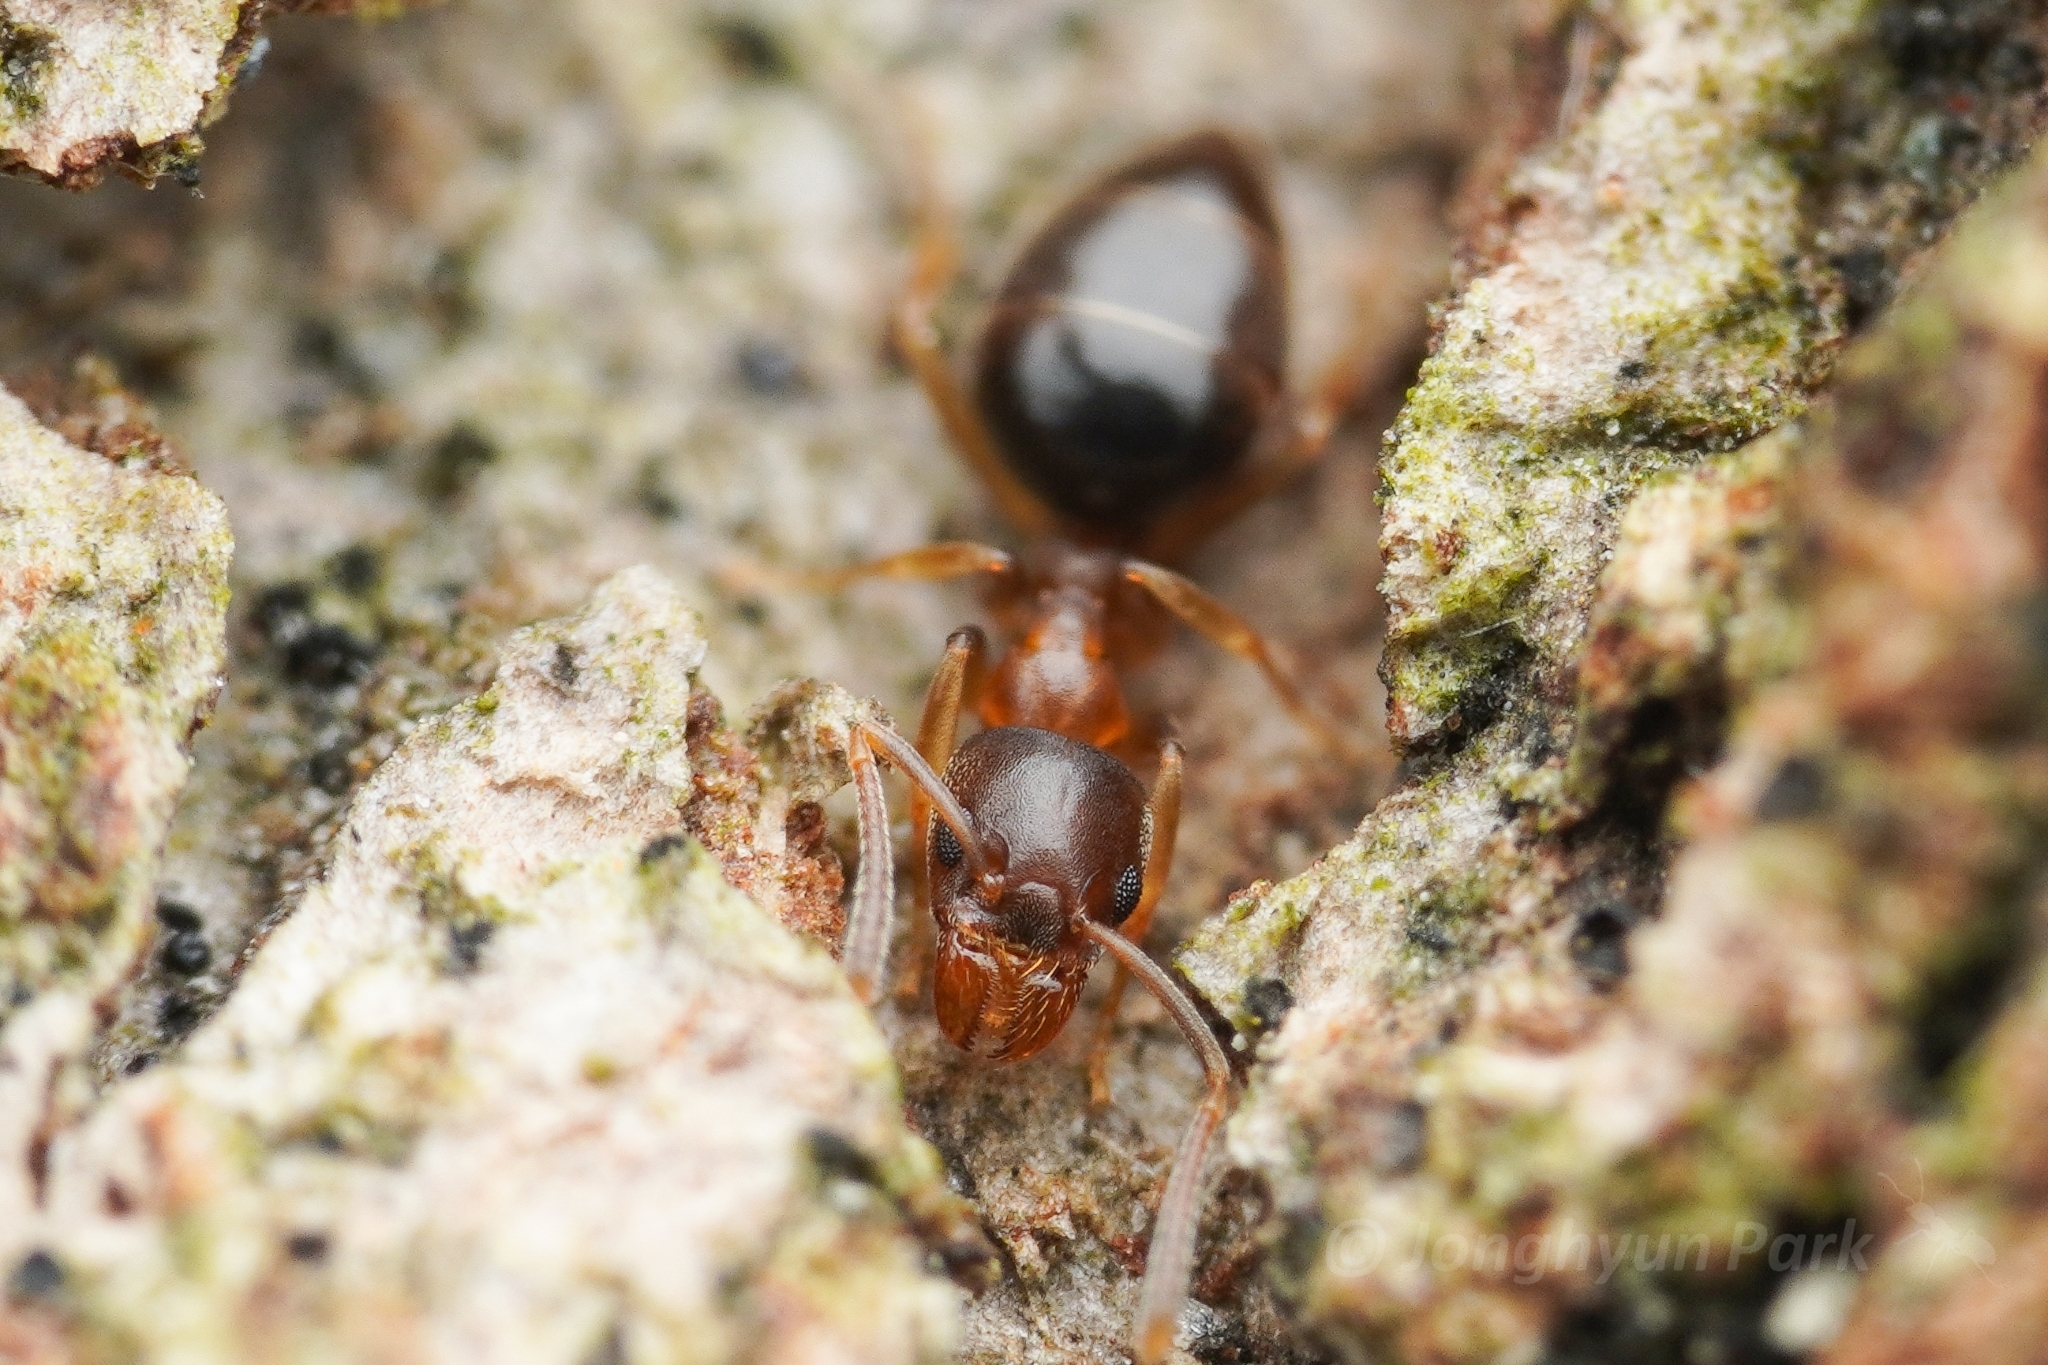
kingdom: Animalia
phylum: Arthropoda
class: Insecta
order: Hymenoptera
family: Formicidae
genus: Technomyrmex
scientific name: Technomyrmex gibbosus
